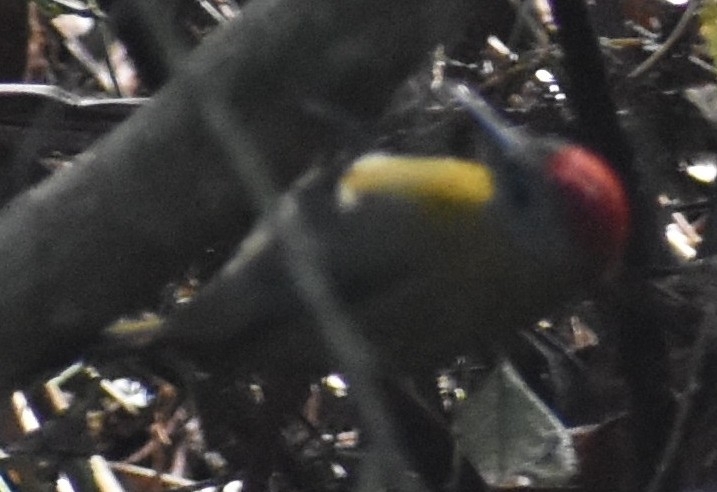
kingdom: Animalia
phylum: Chordata
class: Aves
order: Piciformes
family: Picidae
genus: Dendropicos
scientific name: Dendropicos griseocephalus
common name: Olive woodpecker
